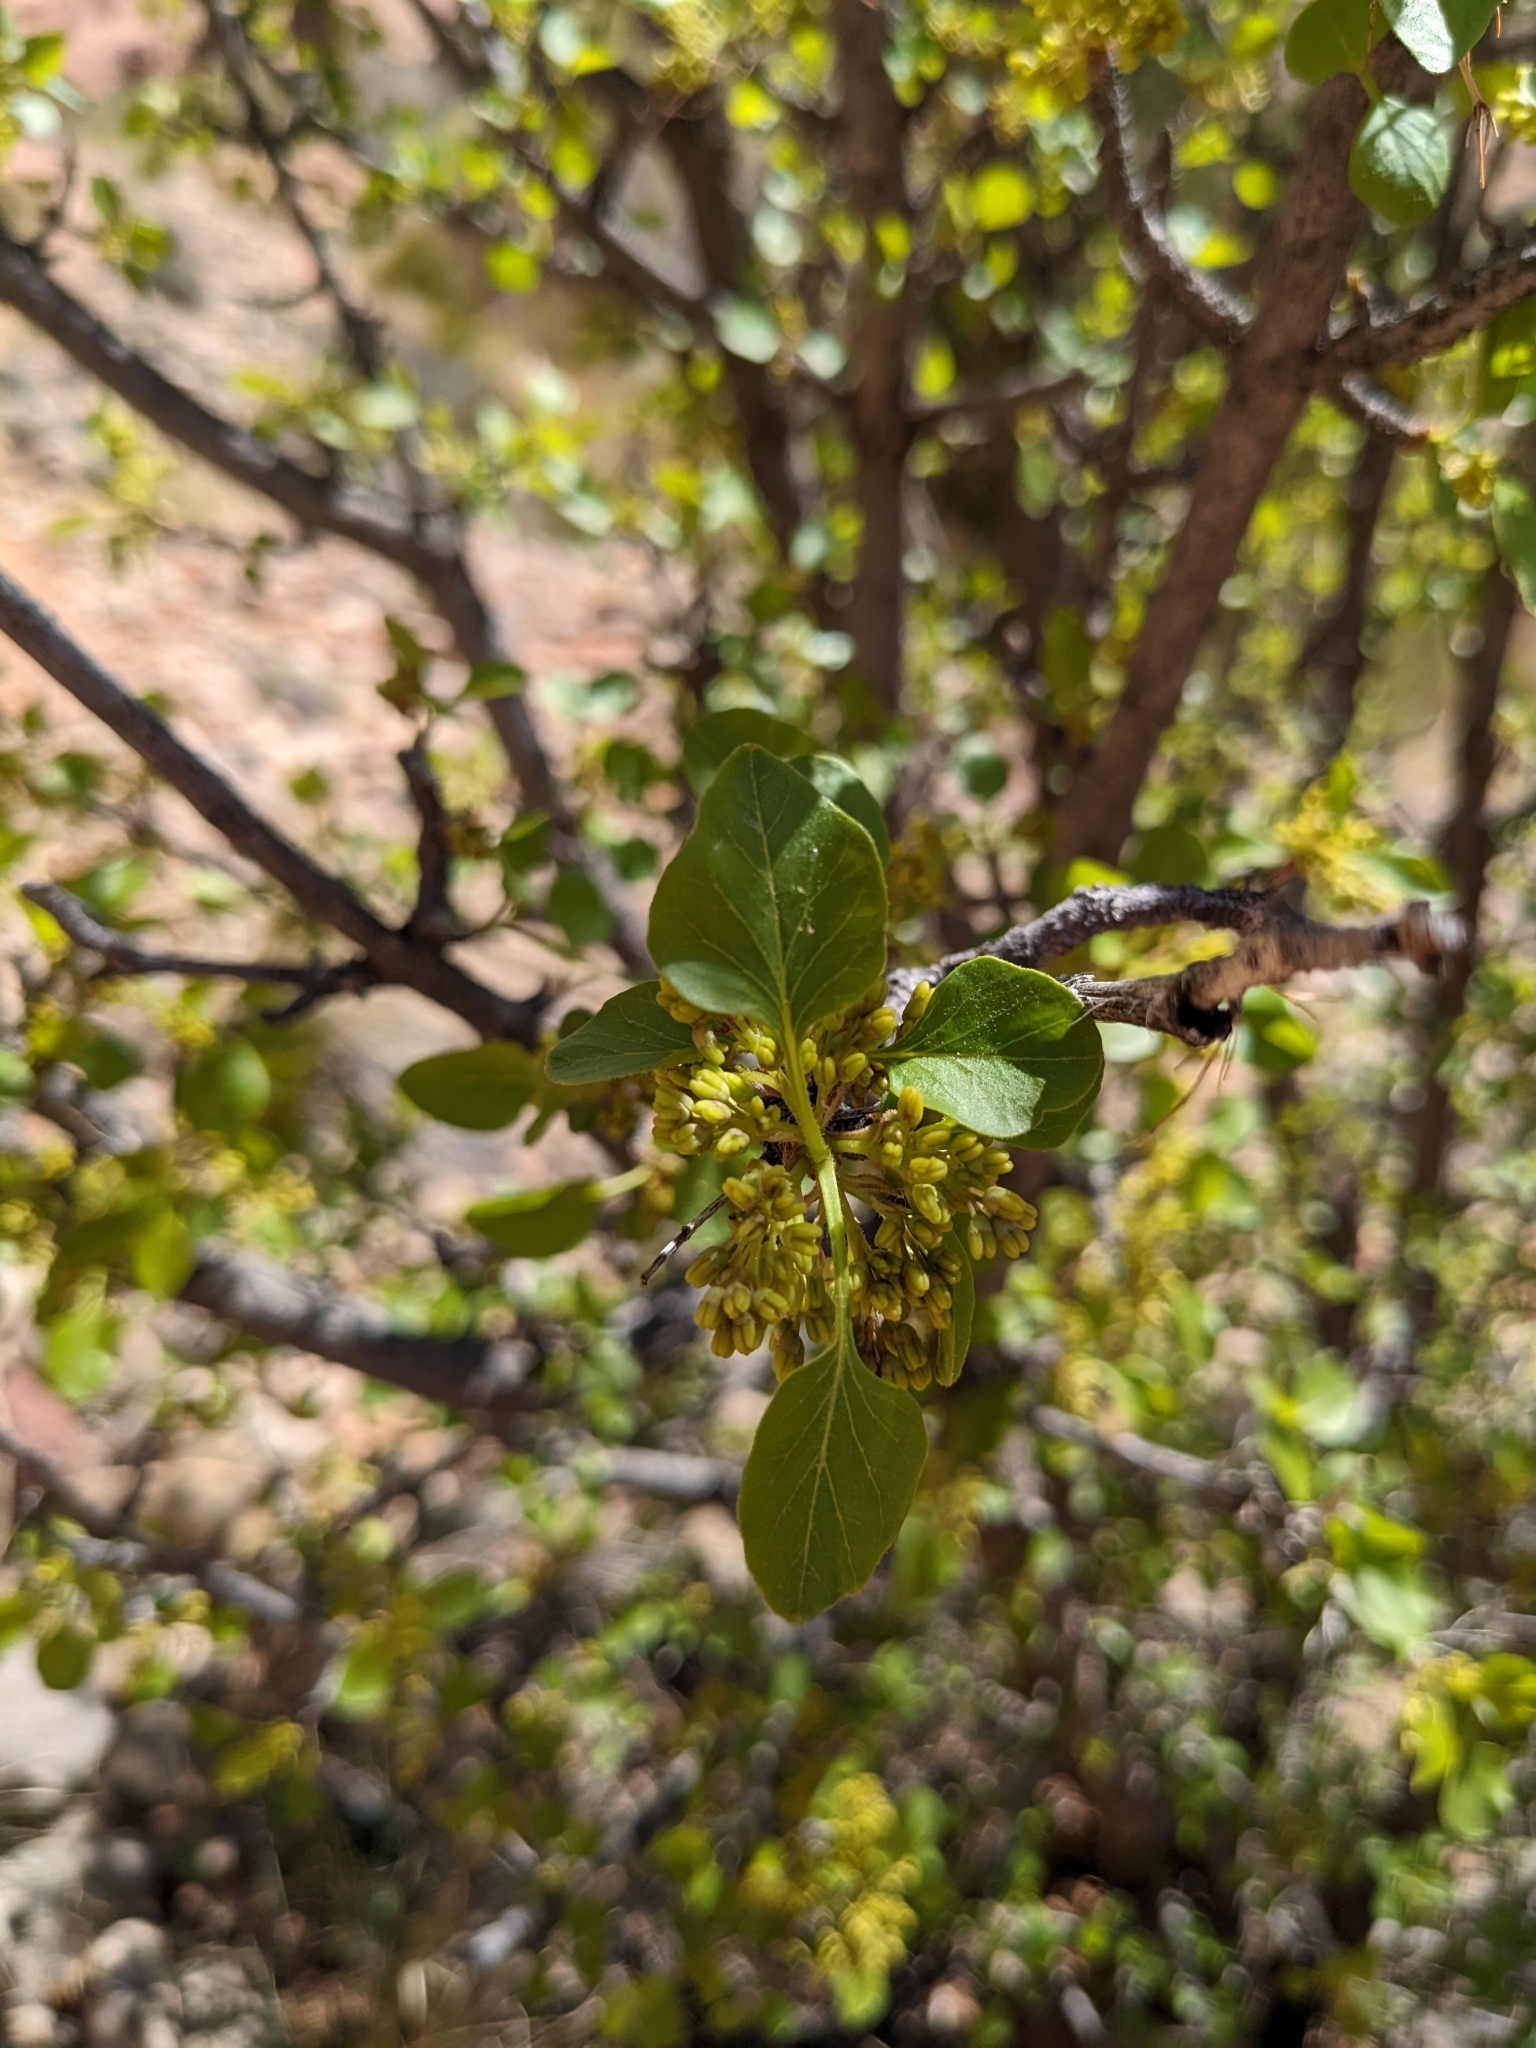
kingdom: Plantae
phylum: Tracheophyta
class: Magnoliopsida
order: Lamiales
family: Oleaceae
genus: Fraxinus
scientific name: Fraxinus anomala
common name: Utah ash
